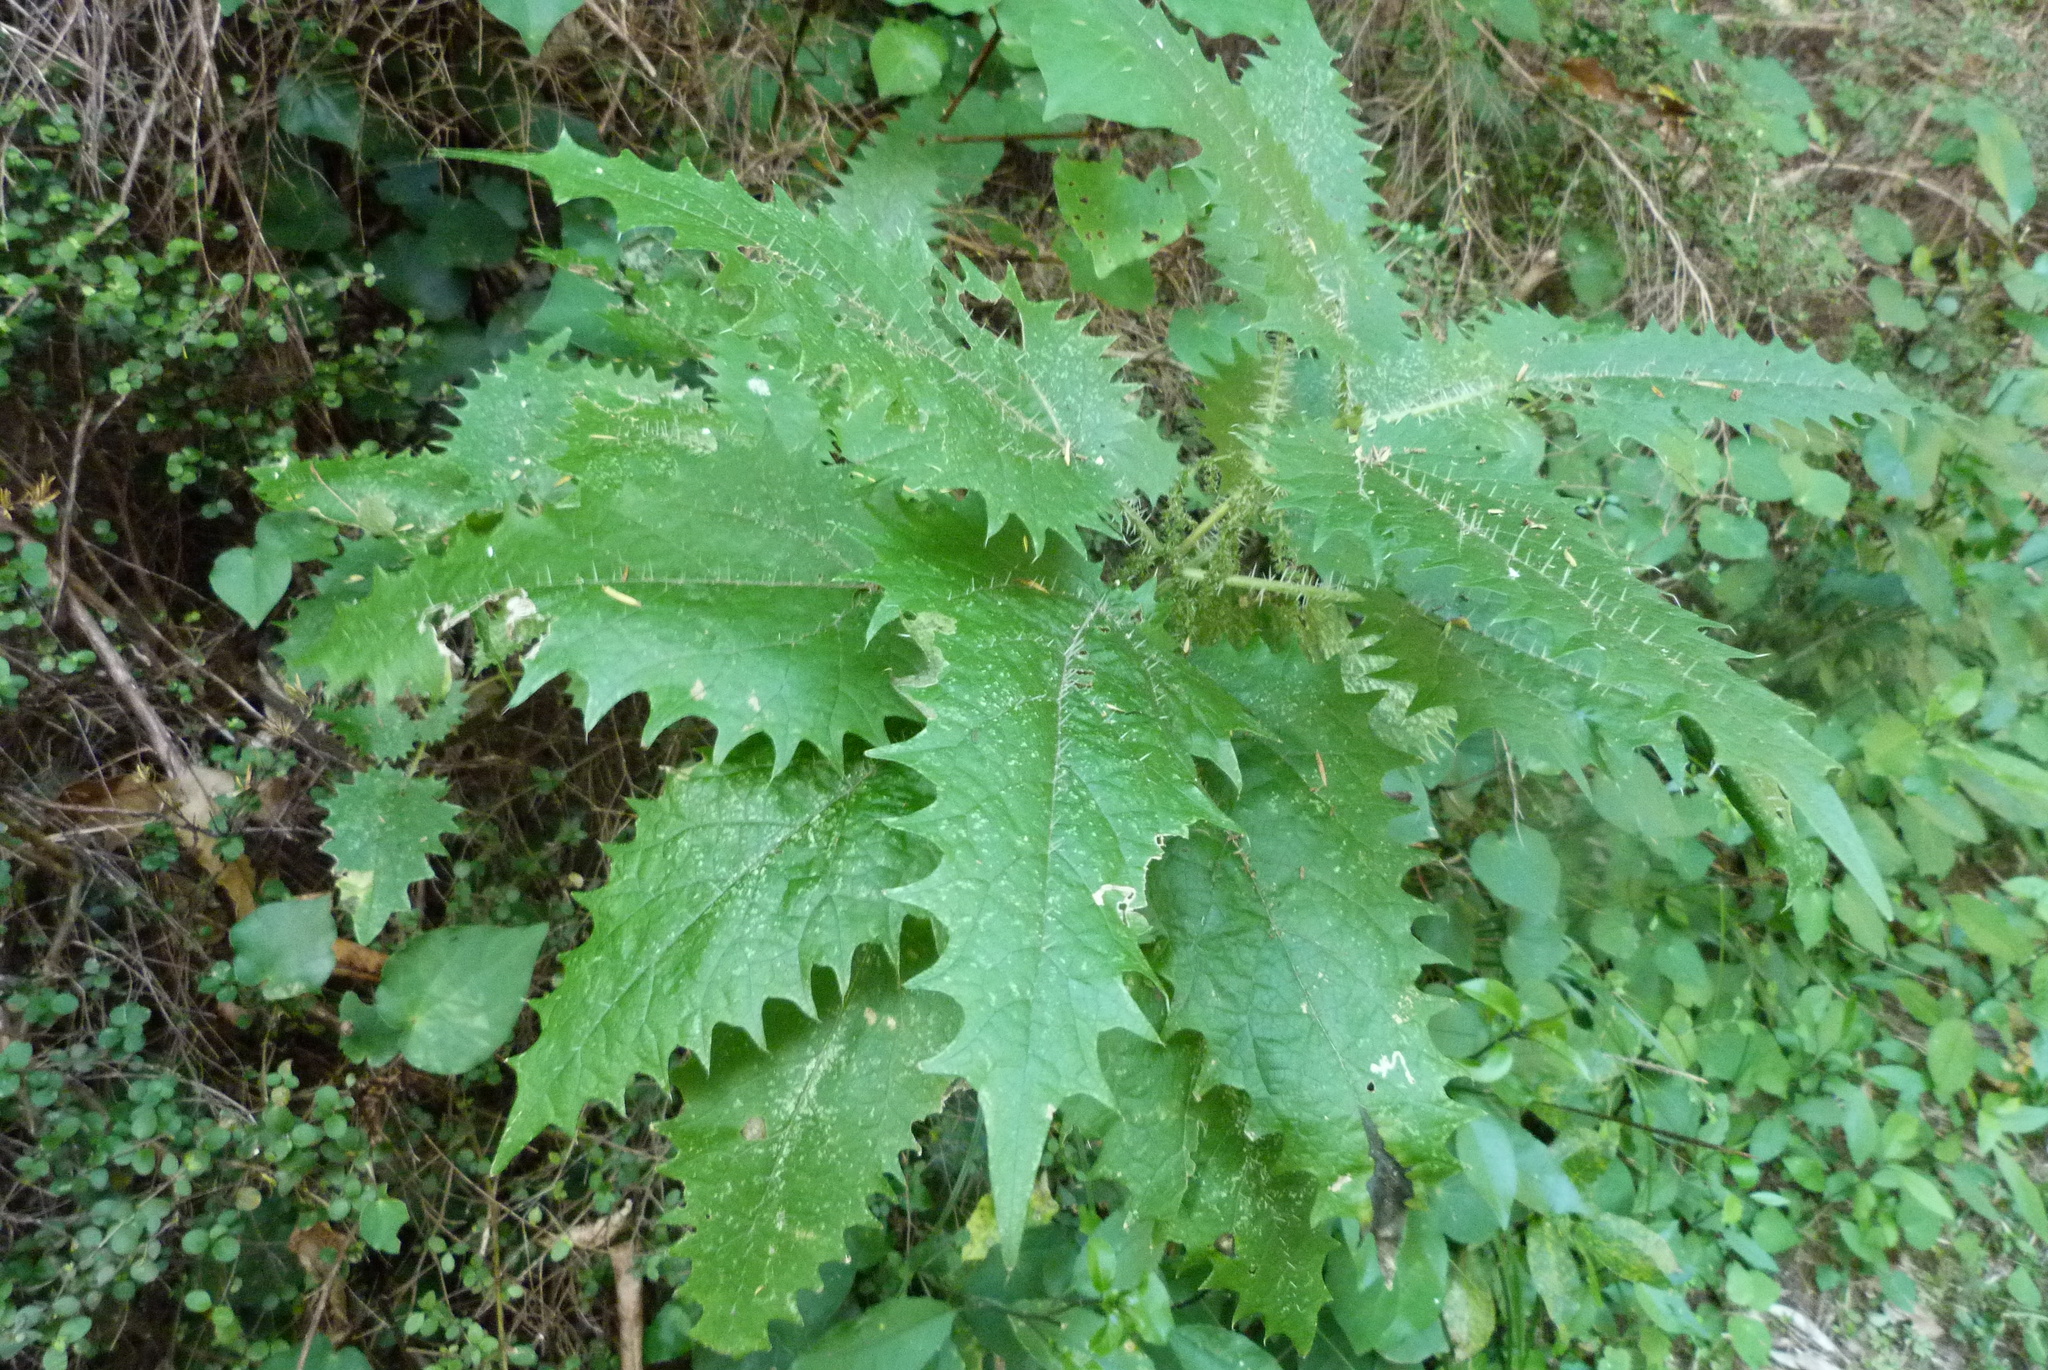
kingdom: Plantae
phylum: Tracheophyta
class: Magnoliopsida
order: Rosales
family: Urticaceae
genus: Urtica
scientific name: Urtica ferox
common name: Tree nettle
